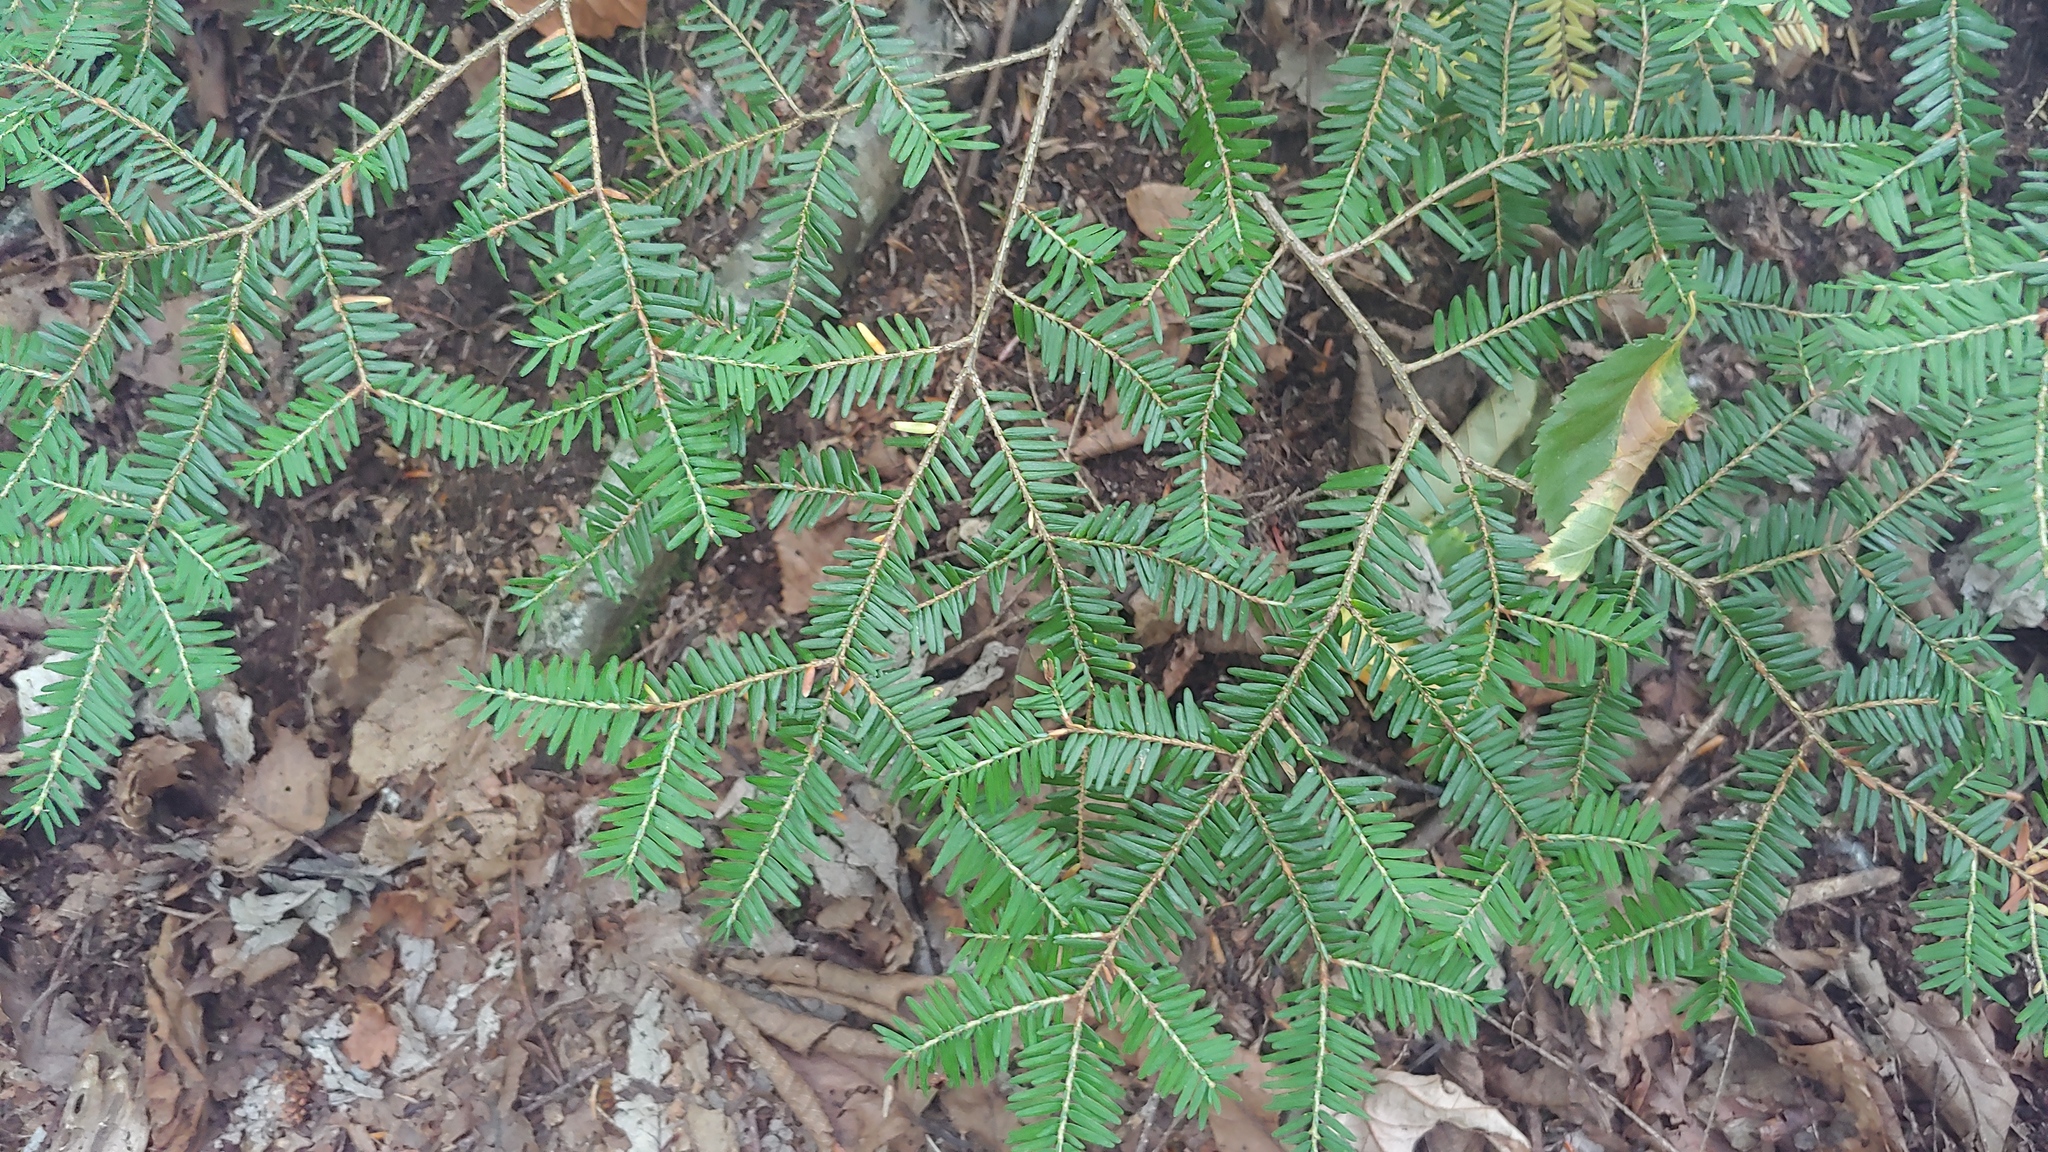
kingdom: Plantae
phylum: Tracheophyta
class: Pinopsida
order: Pinales
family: Pinaceae
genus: Tsuga
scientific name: Tsuga canadensis
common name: Eastern hemlock
